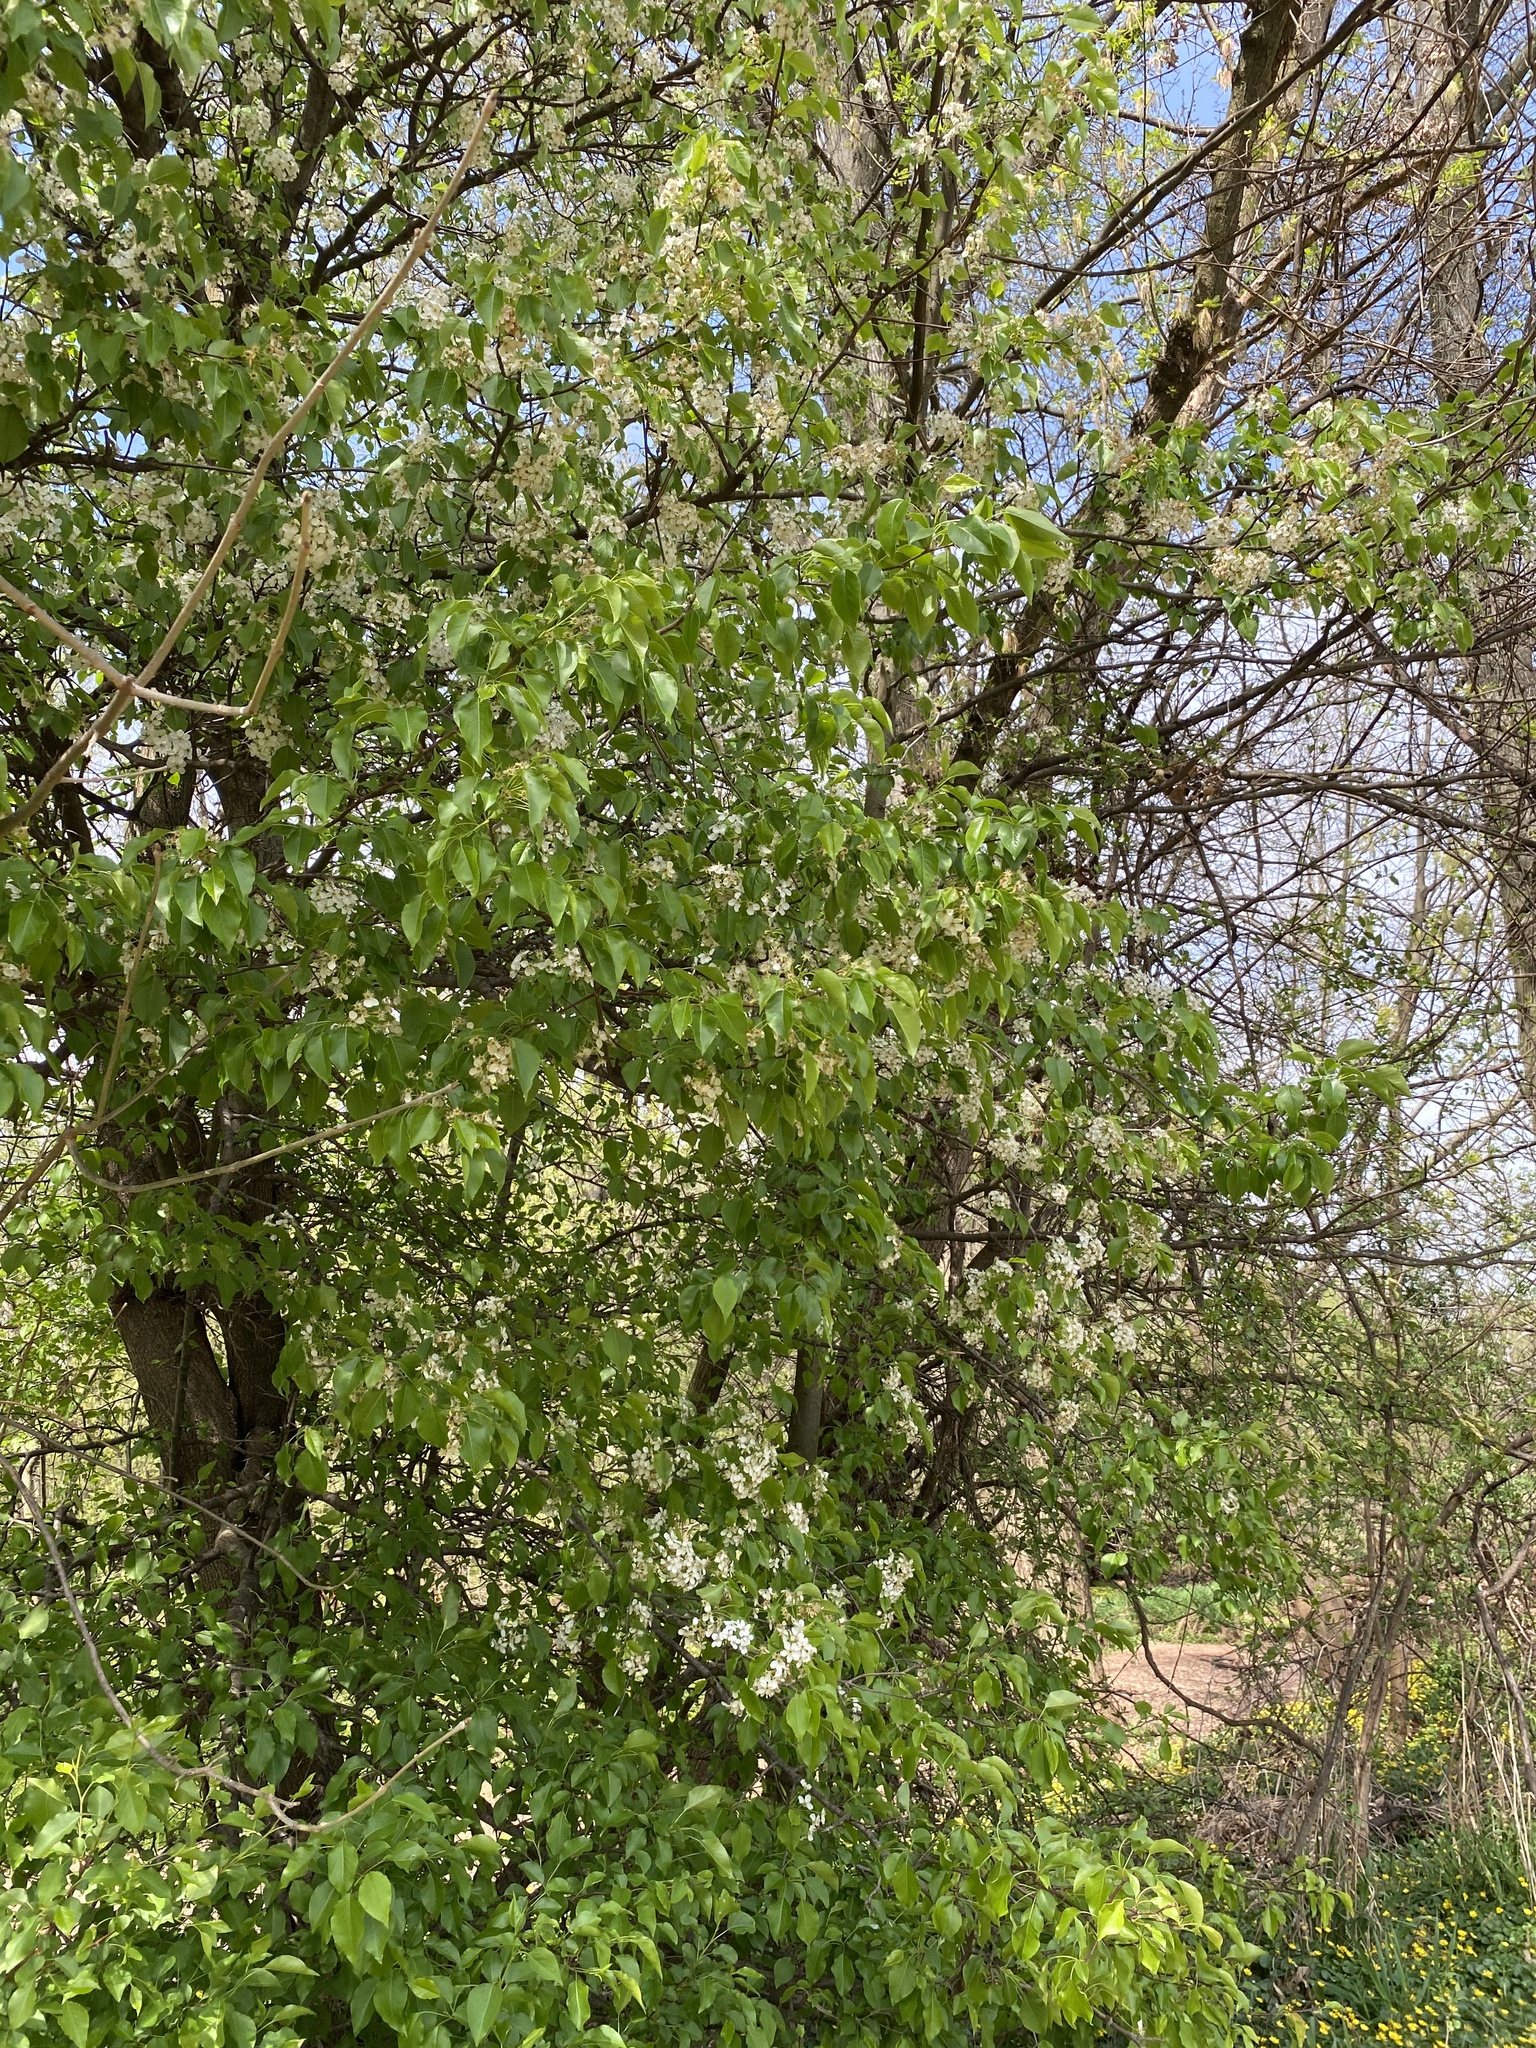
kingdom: Plantae
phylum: Tracheophyta
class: Magnoliopsida
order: Rosales
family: Rosaceae
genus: Pyrus
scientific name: Pyrus calleryana
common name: Callery pear
